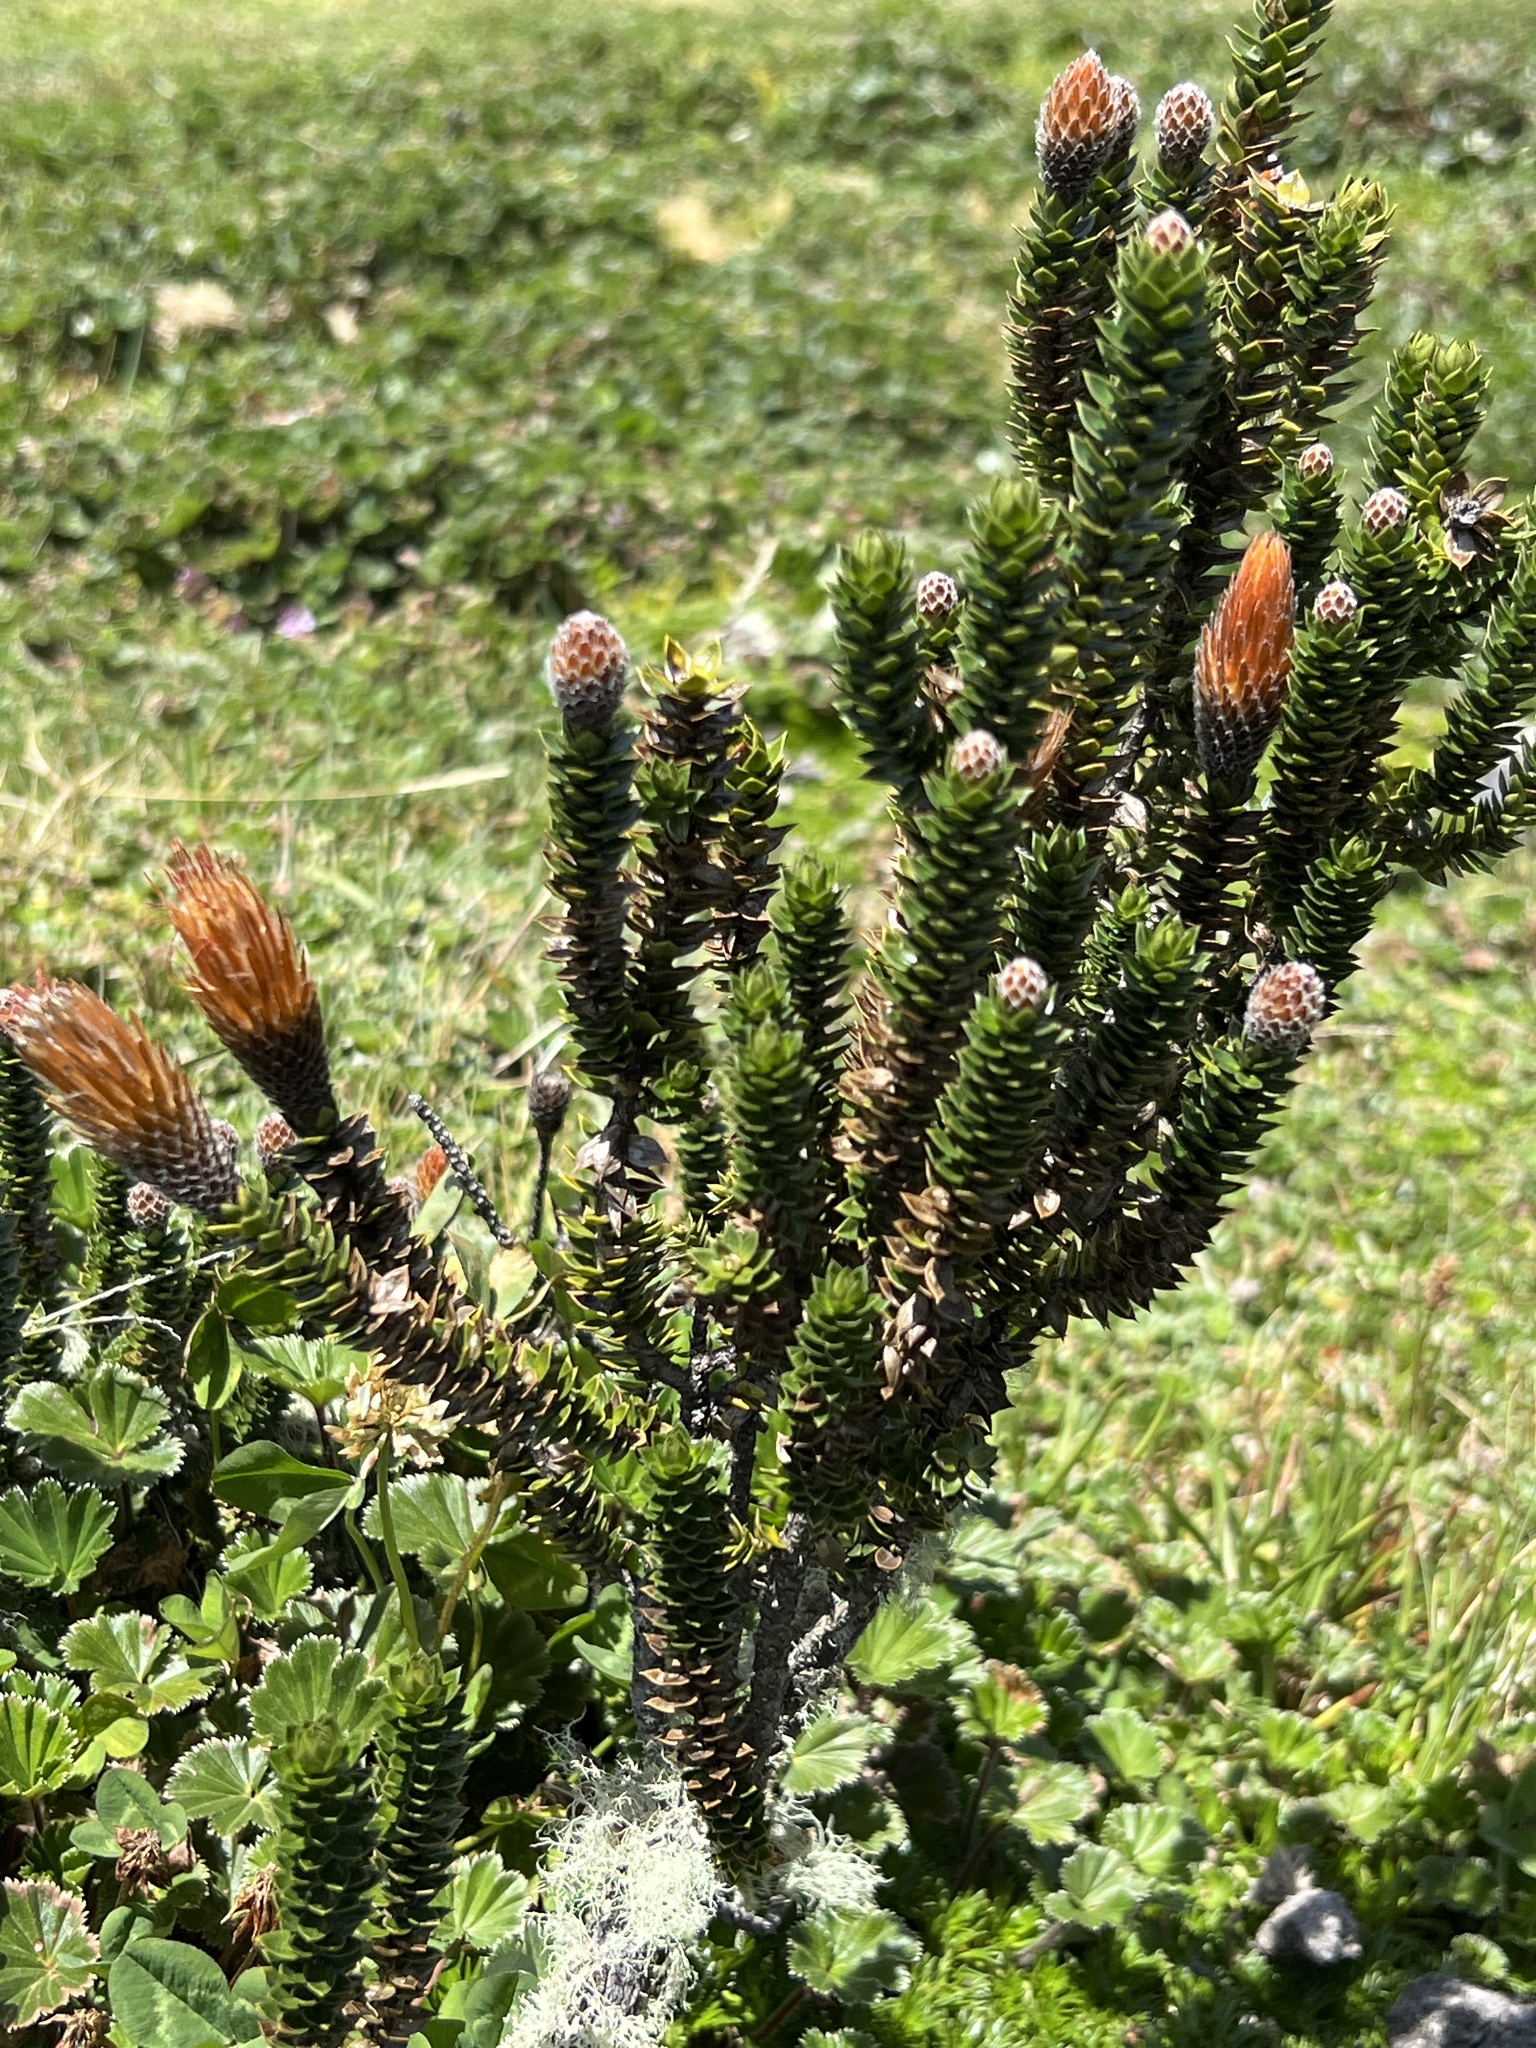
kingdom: Plantae
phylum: Tracheophyta
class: Magnoliopsida
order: Asterales
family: Asteraceae
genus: Chuquiraga
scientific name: Chuquiraga jussieui
